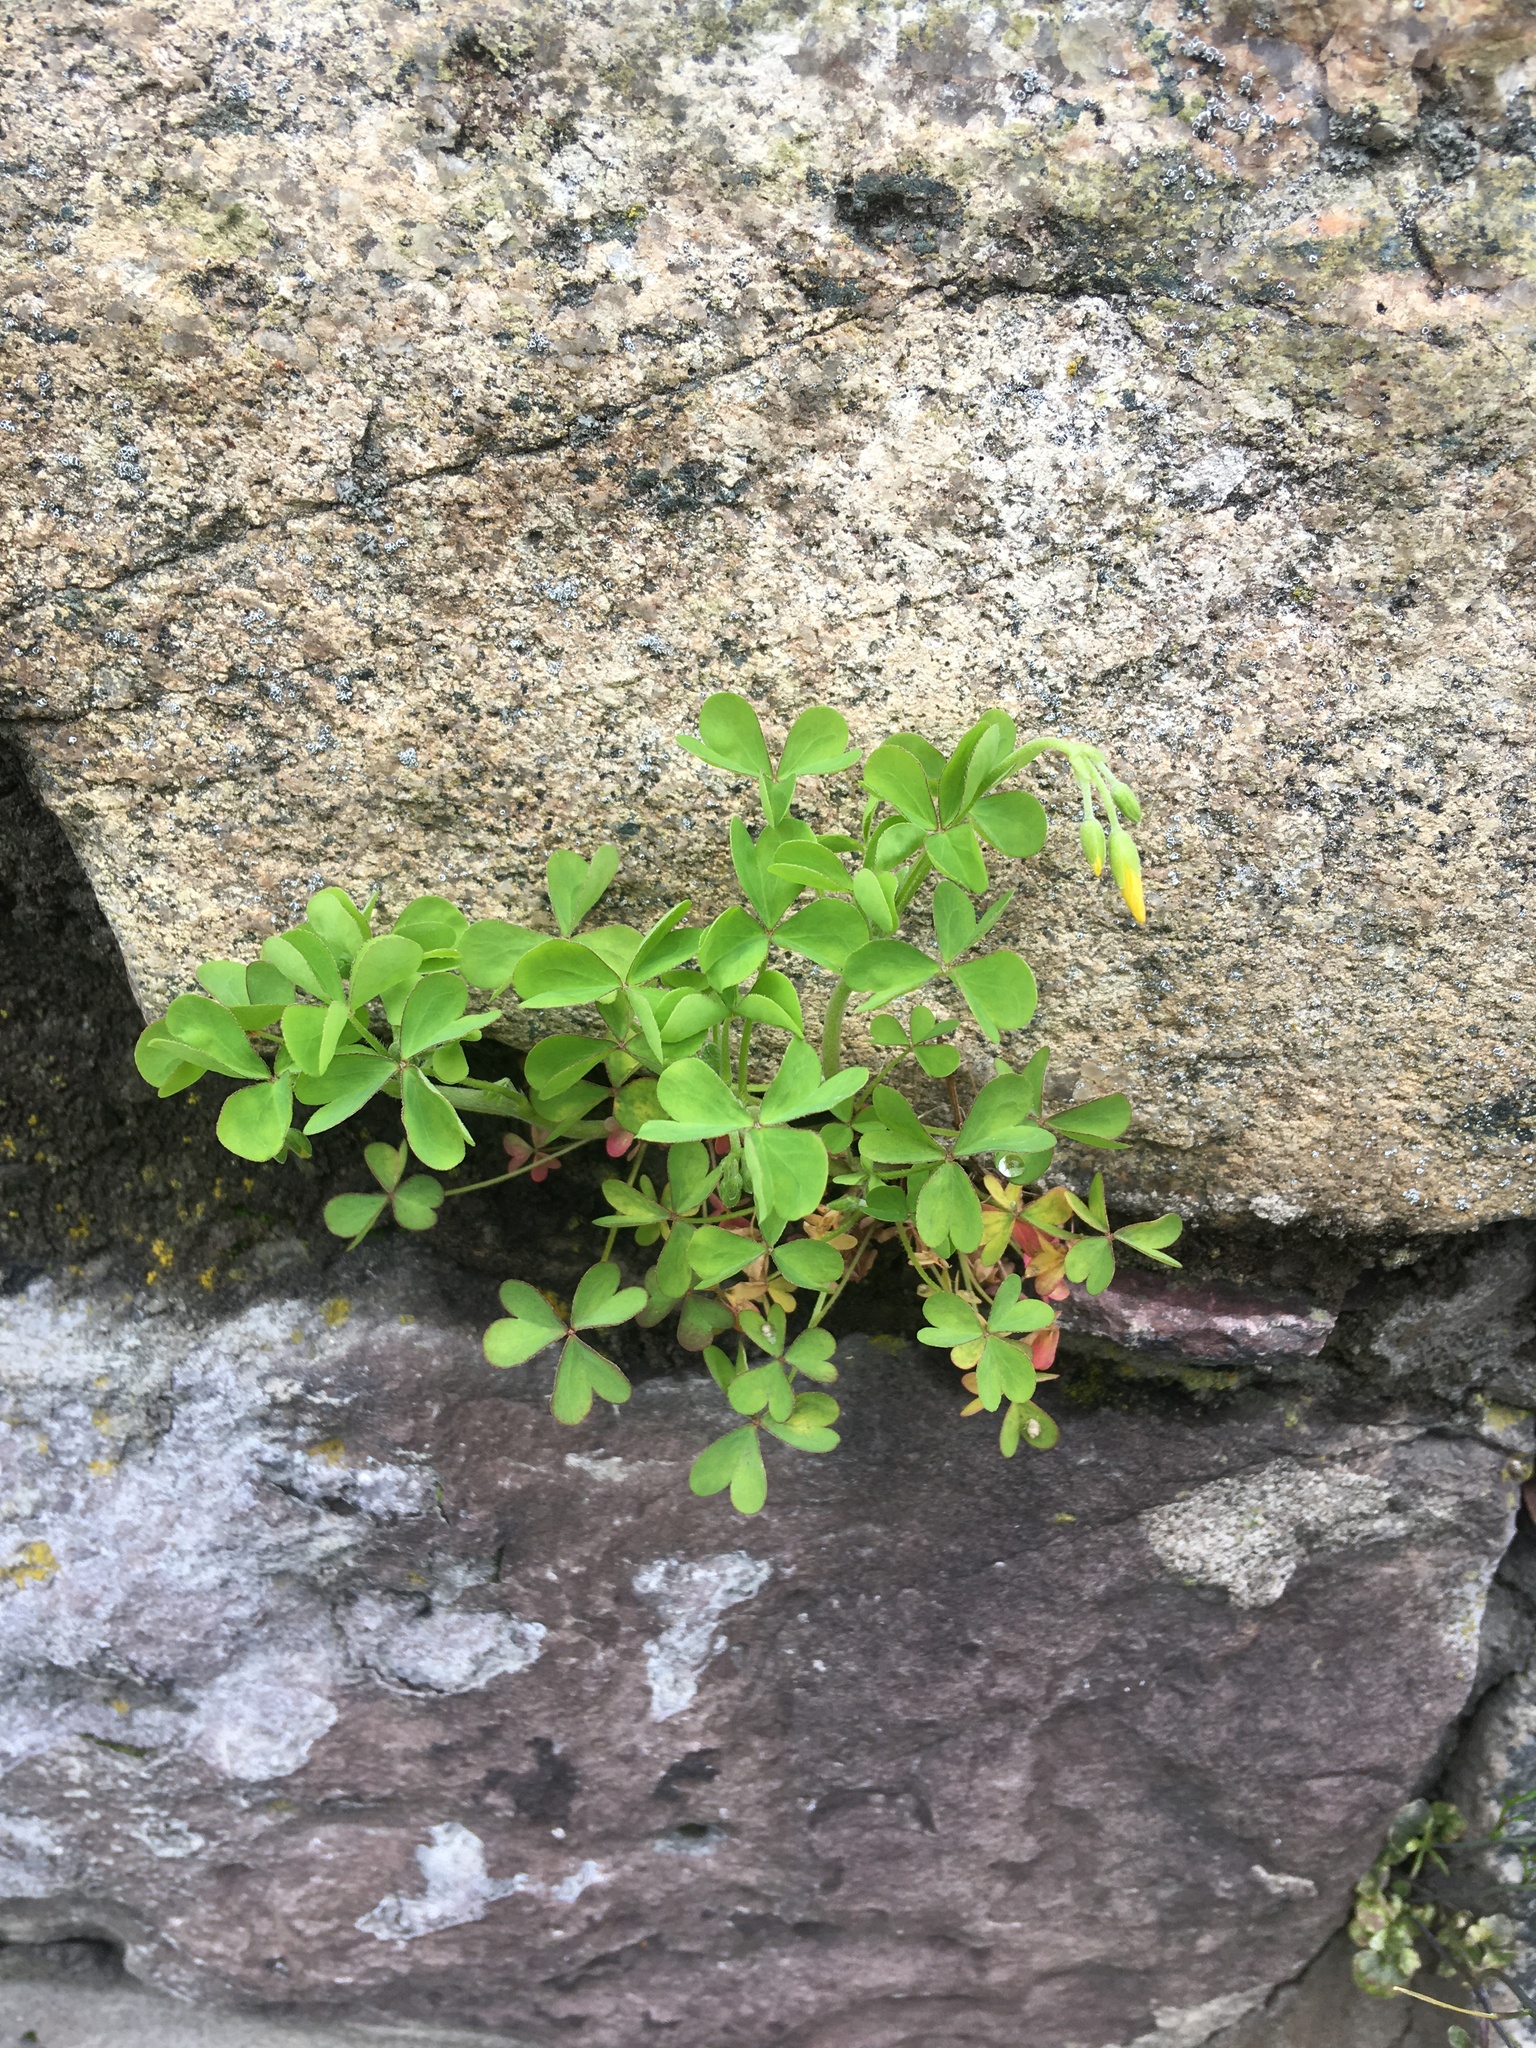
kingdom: Plantae
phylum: Tracheophyta
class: Magnoliopsida
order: Oxalidales
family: Oxalidaceae
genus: Oxalis
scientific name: Oxalis corniculata
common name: Procumbent yellow-sorrel
